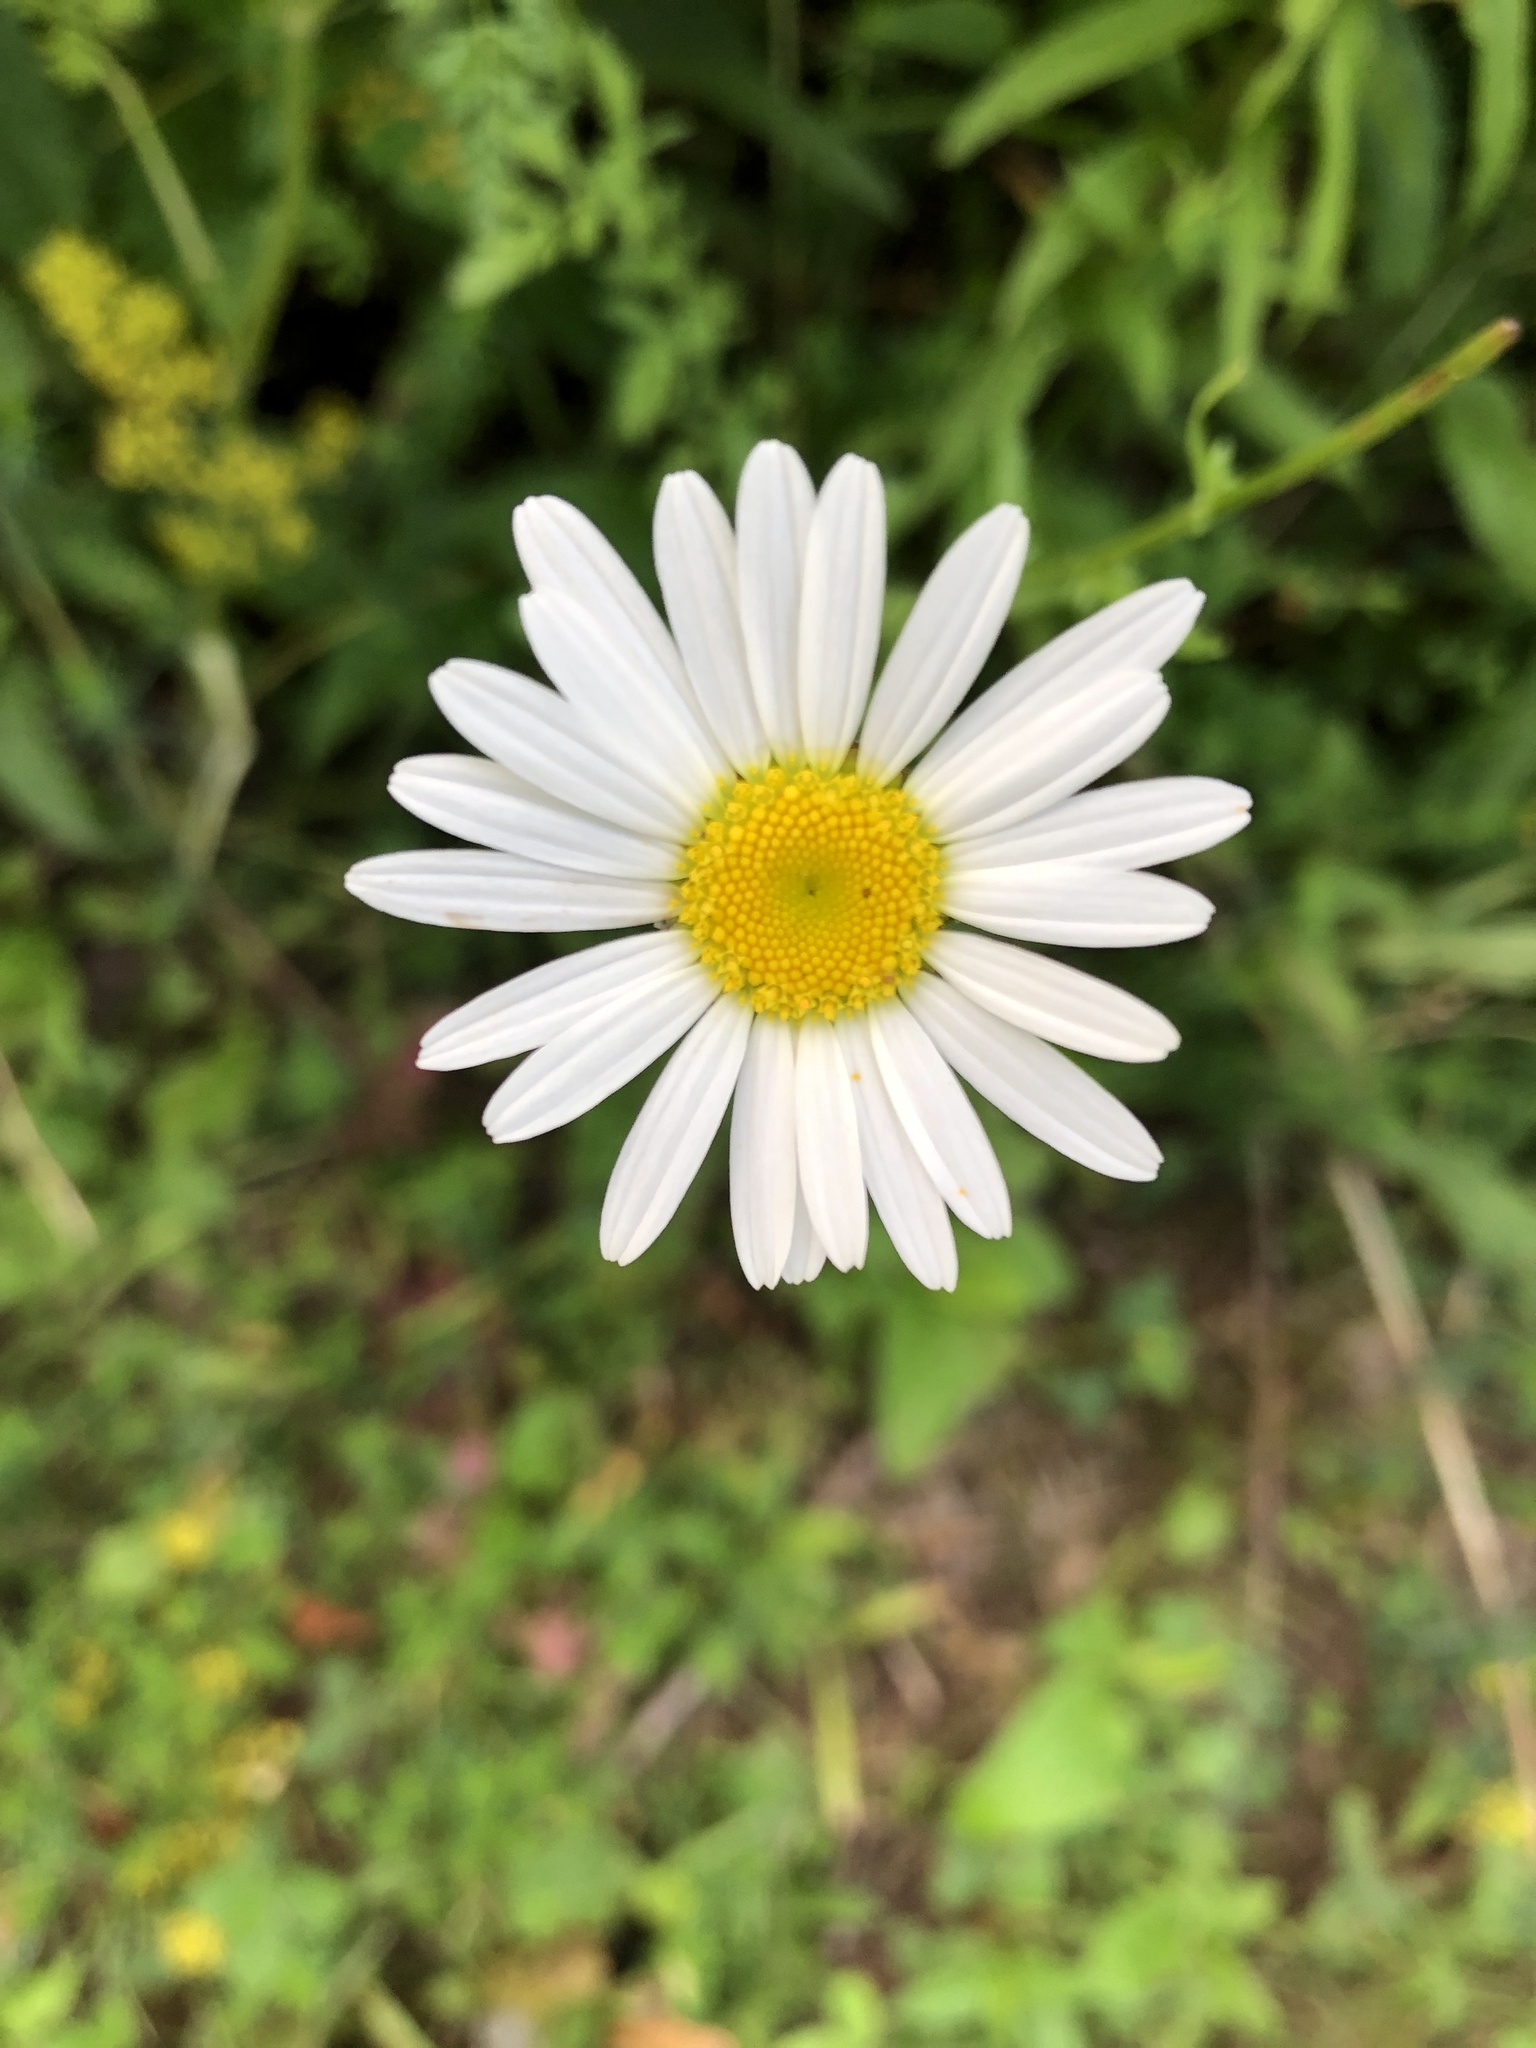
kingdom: Plantae
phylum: Tracheophyta
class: Magnoliopsida
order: Asterales
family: Asteraceae
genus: Leucanthemum
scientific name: Leucanthemum vulgare
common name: Oxeye daisy
